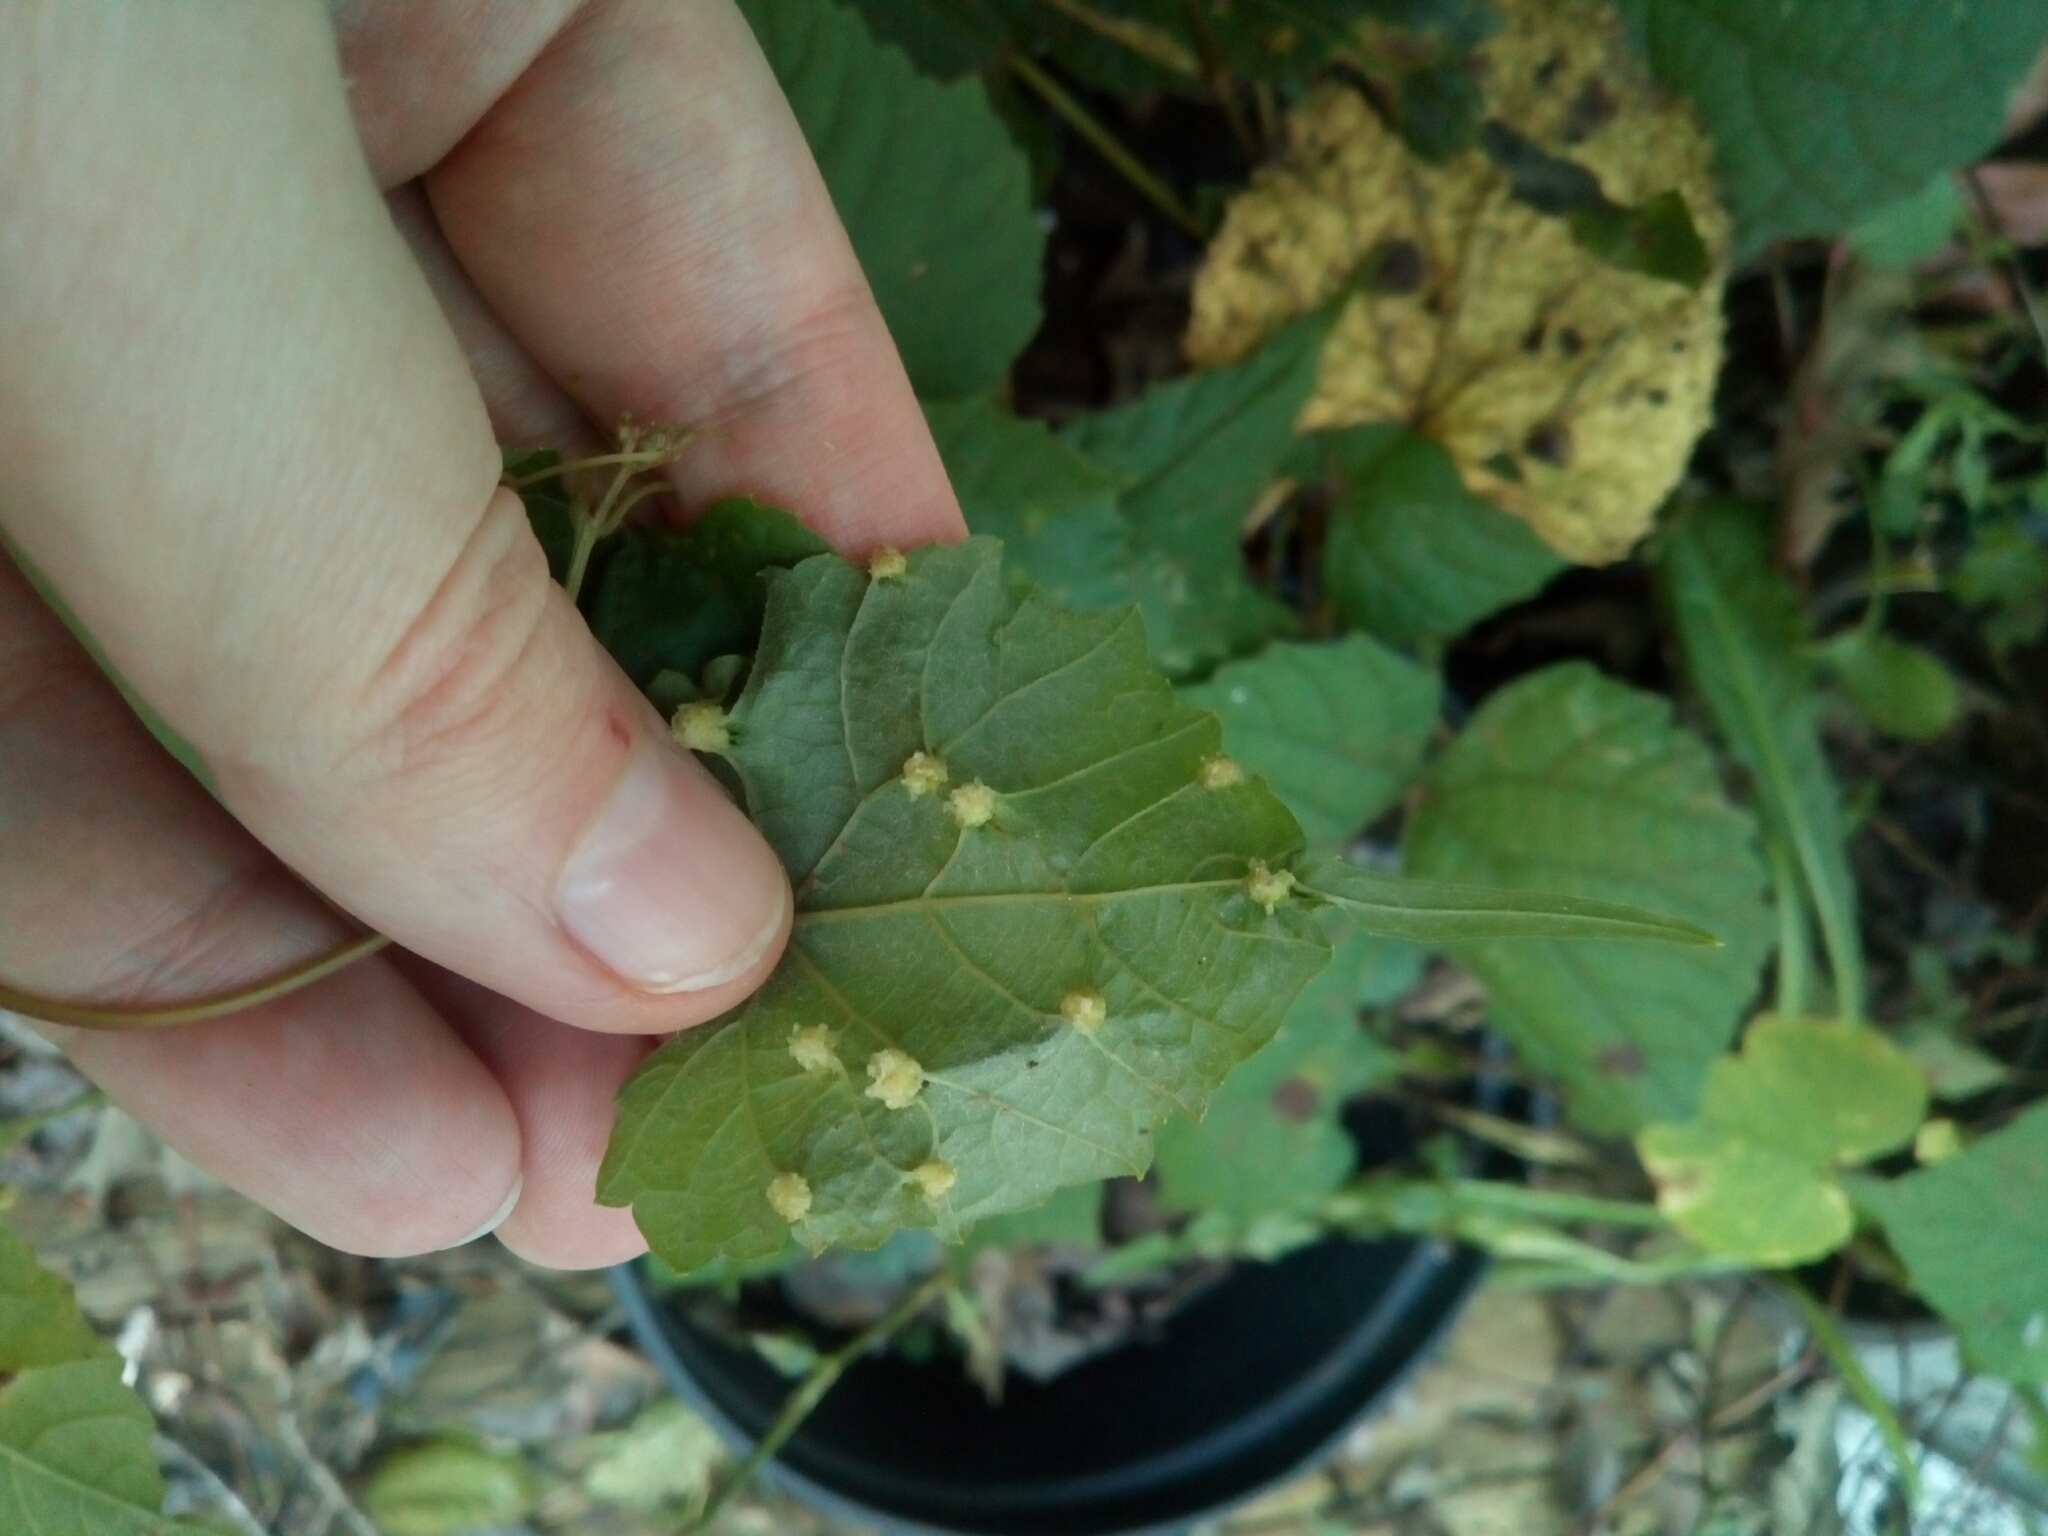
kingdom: Animalia
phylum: Arthropoda
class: Insecta
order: Hemiptera
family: Phylloxeridae
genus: Daktulosphaira
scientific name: Daktulosphaira vitifoliae
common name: Grape phylloxera
